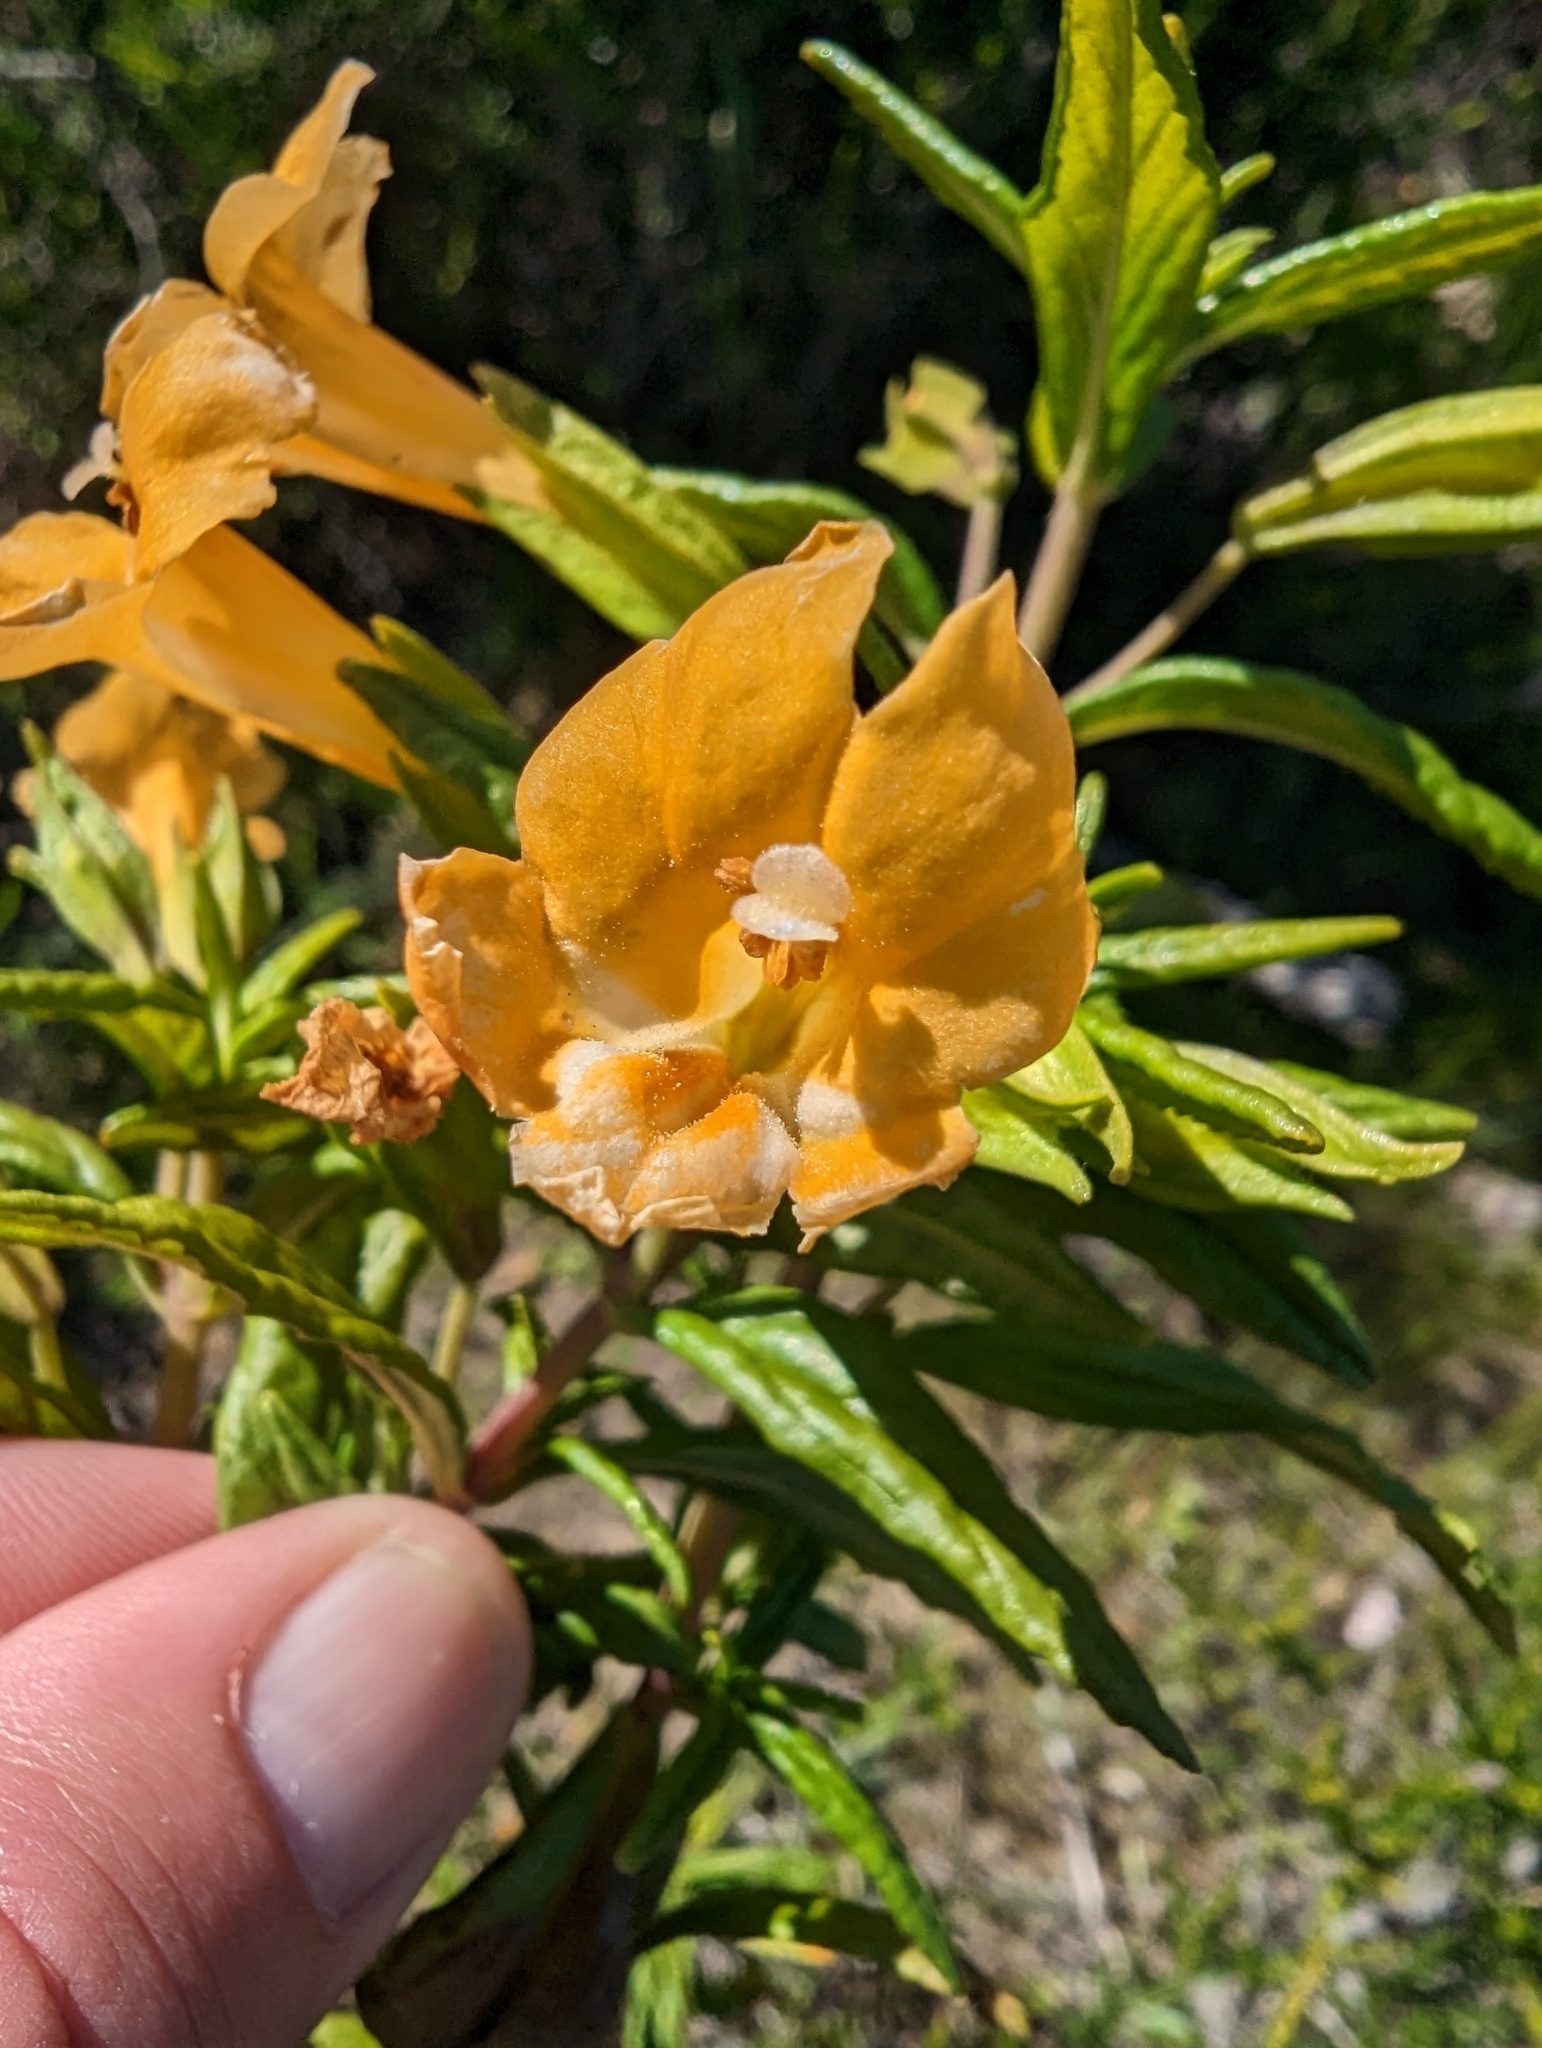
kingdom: Plantae
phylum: Tracheophyta
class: Magnoliopsida
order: Lamiales
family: Phrymaceae
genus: Diplacus
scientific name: Diplacus aurantiacus
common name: Bush monkey-flower
